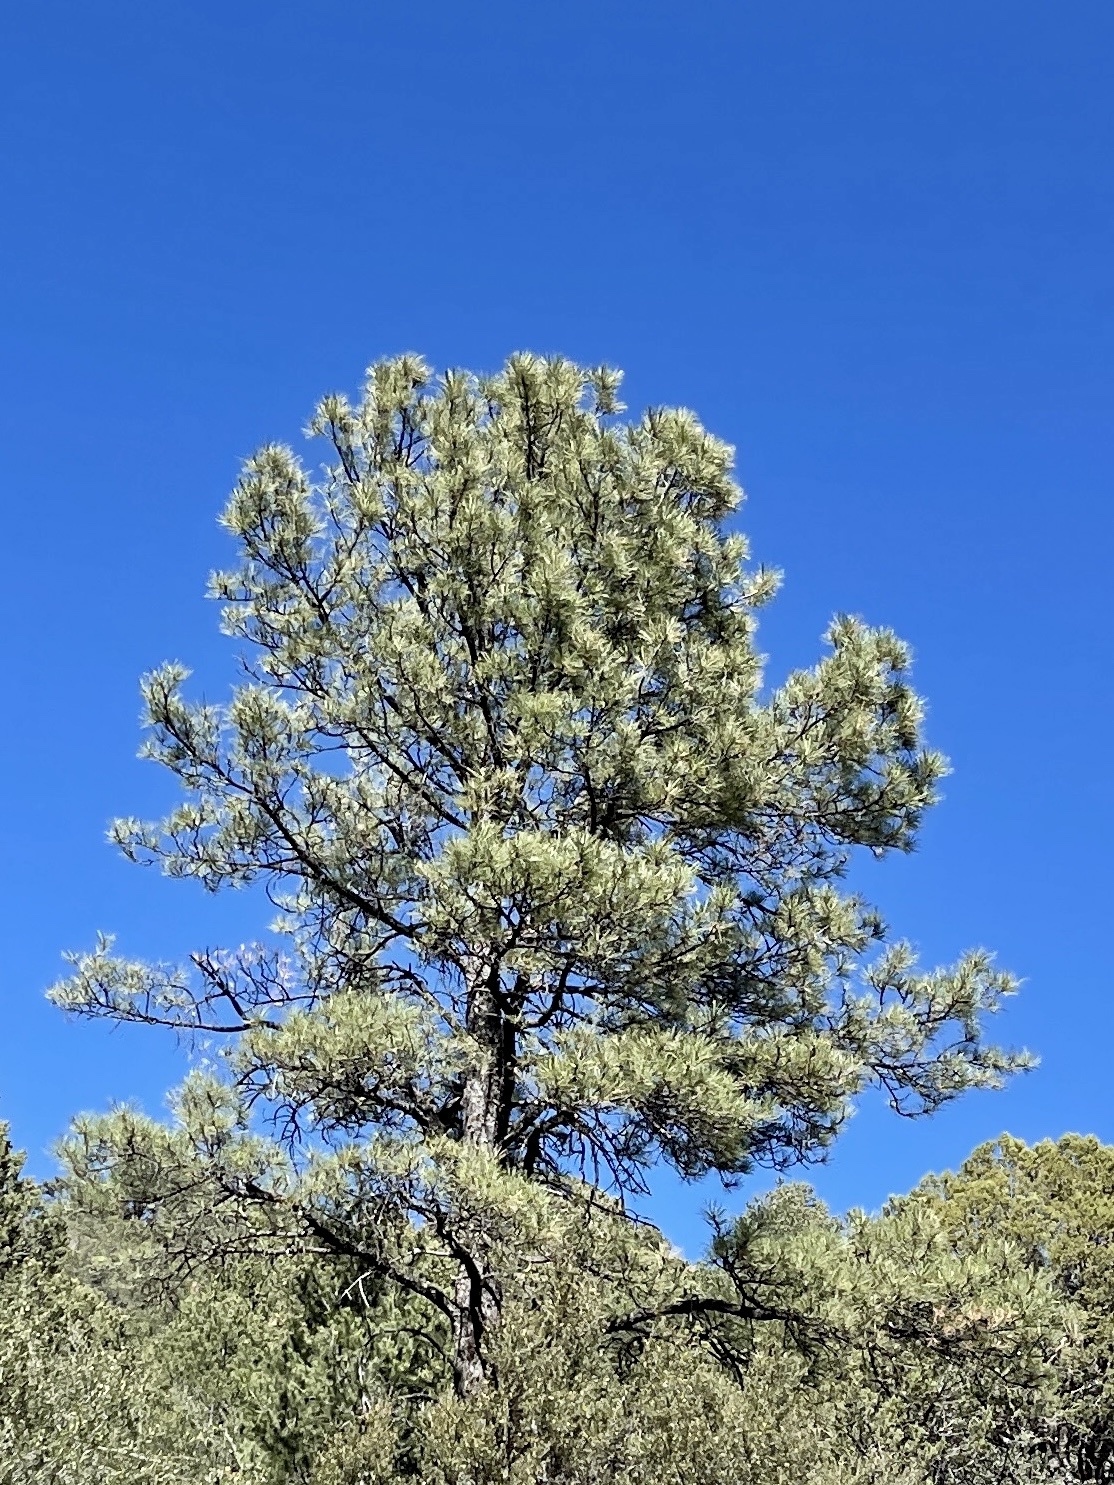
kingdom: Plantae
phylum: Tracheophyta
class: Pinopsida
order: Pinales
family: Pinaceae
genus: Pinus
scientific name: Pinus ponderosa
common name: Western yellow-pine
